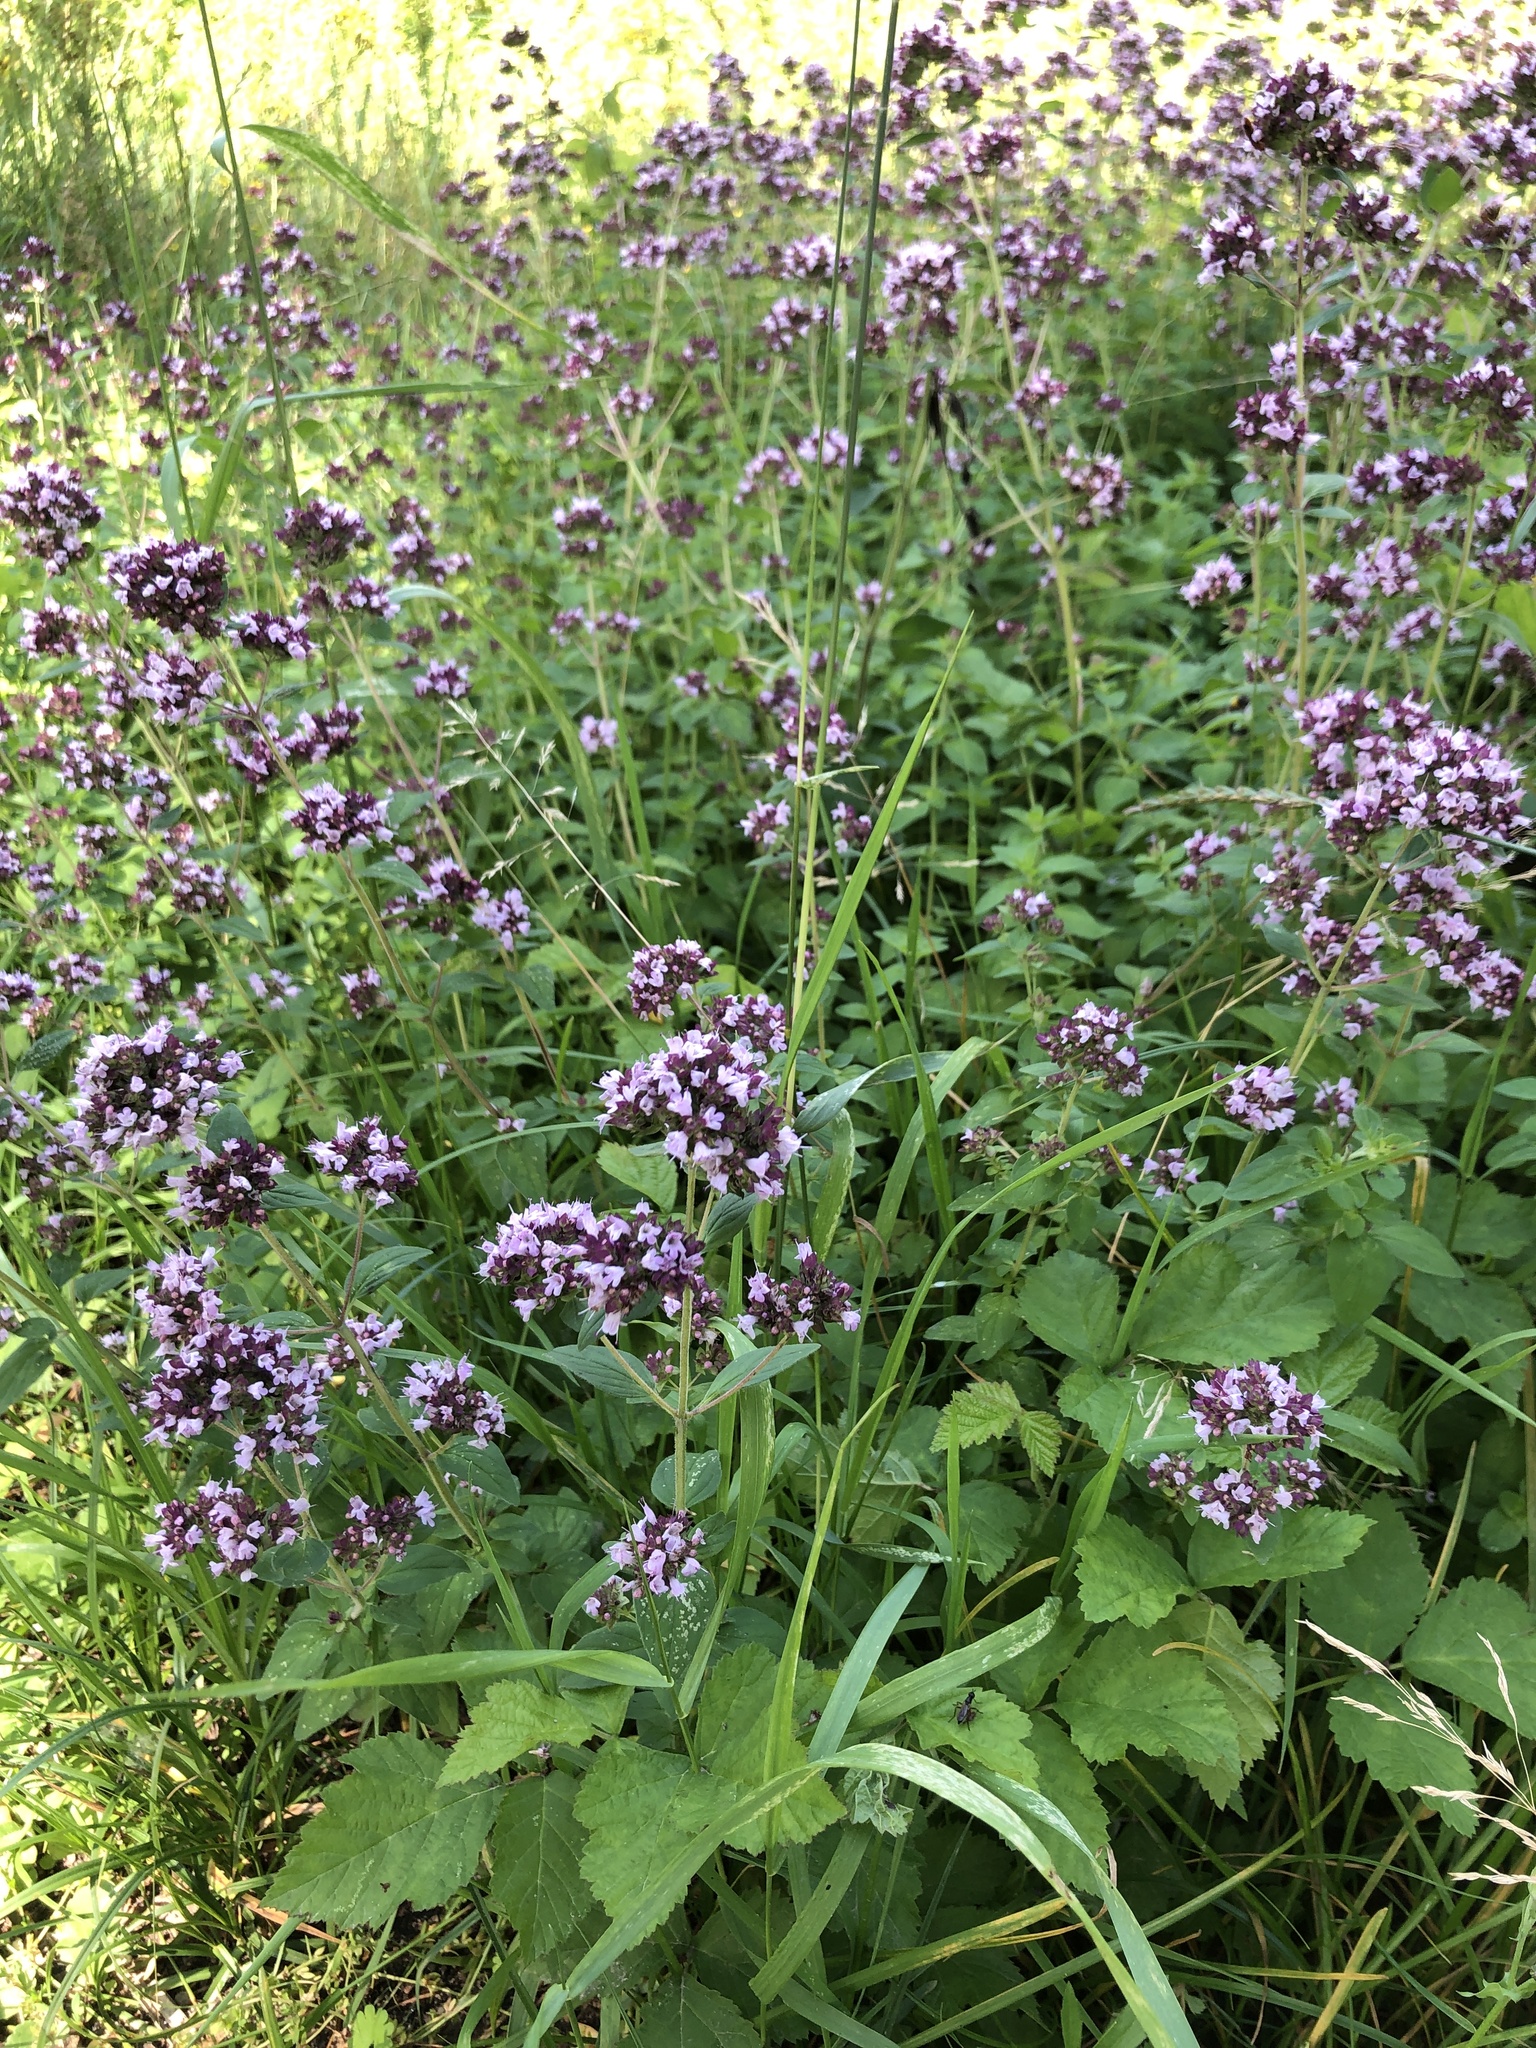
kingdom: Plantae
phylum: Tracheophyta
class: Magnoliopsida
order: Lamiales
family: Lamiaceae
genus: Origanum
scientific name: Origanum vulgare
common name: Wild marjoram
